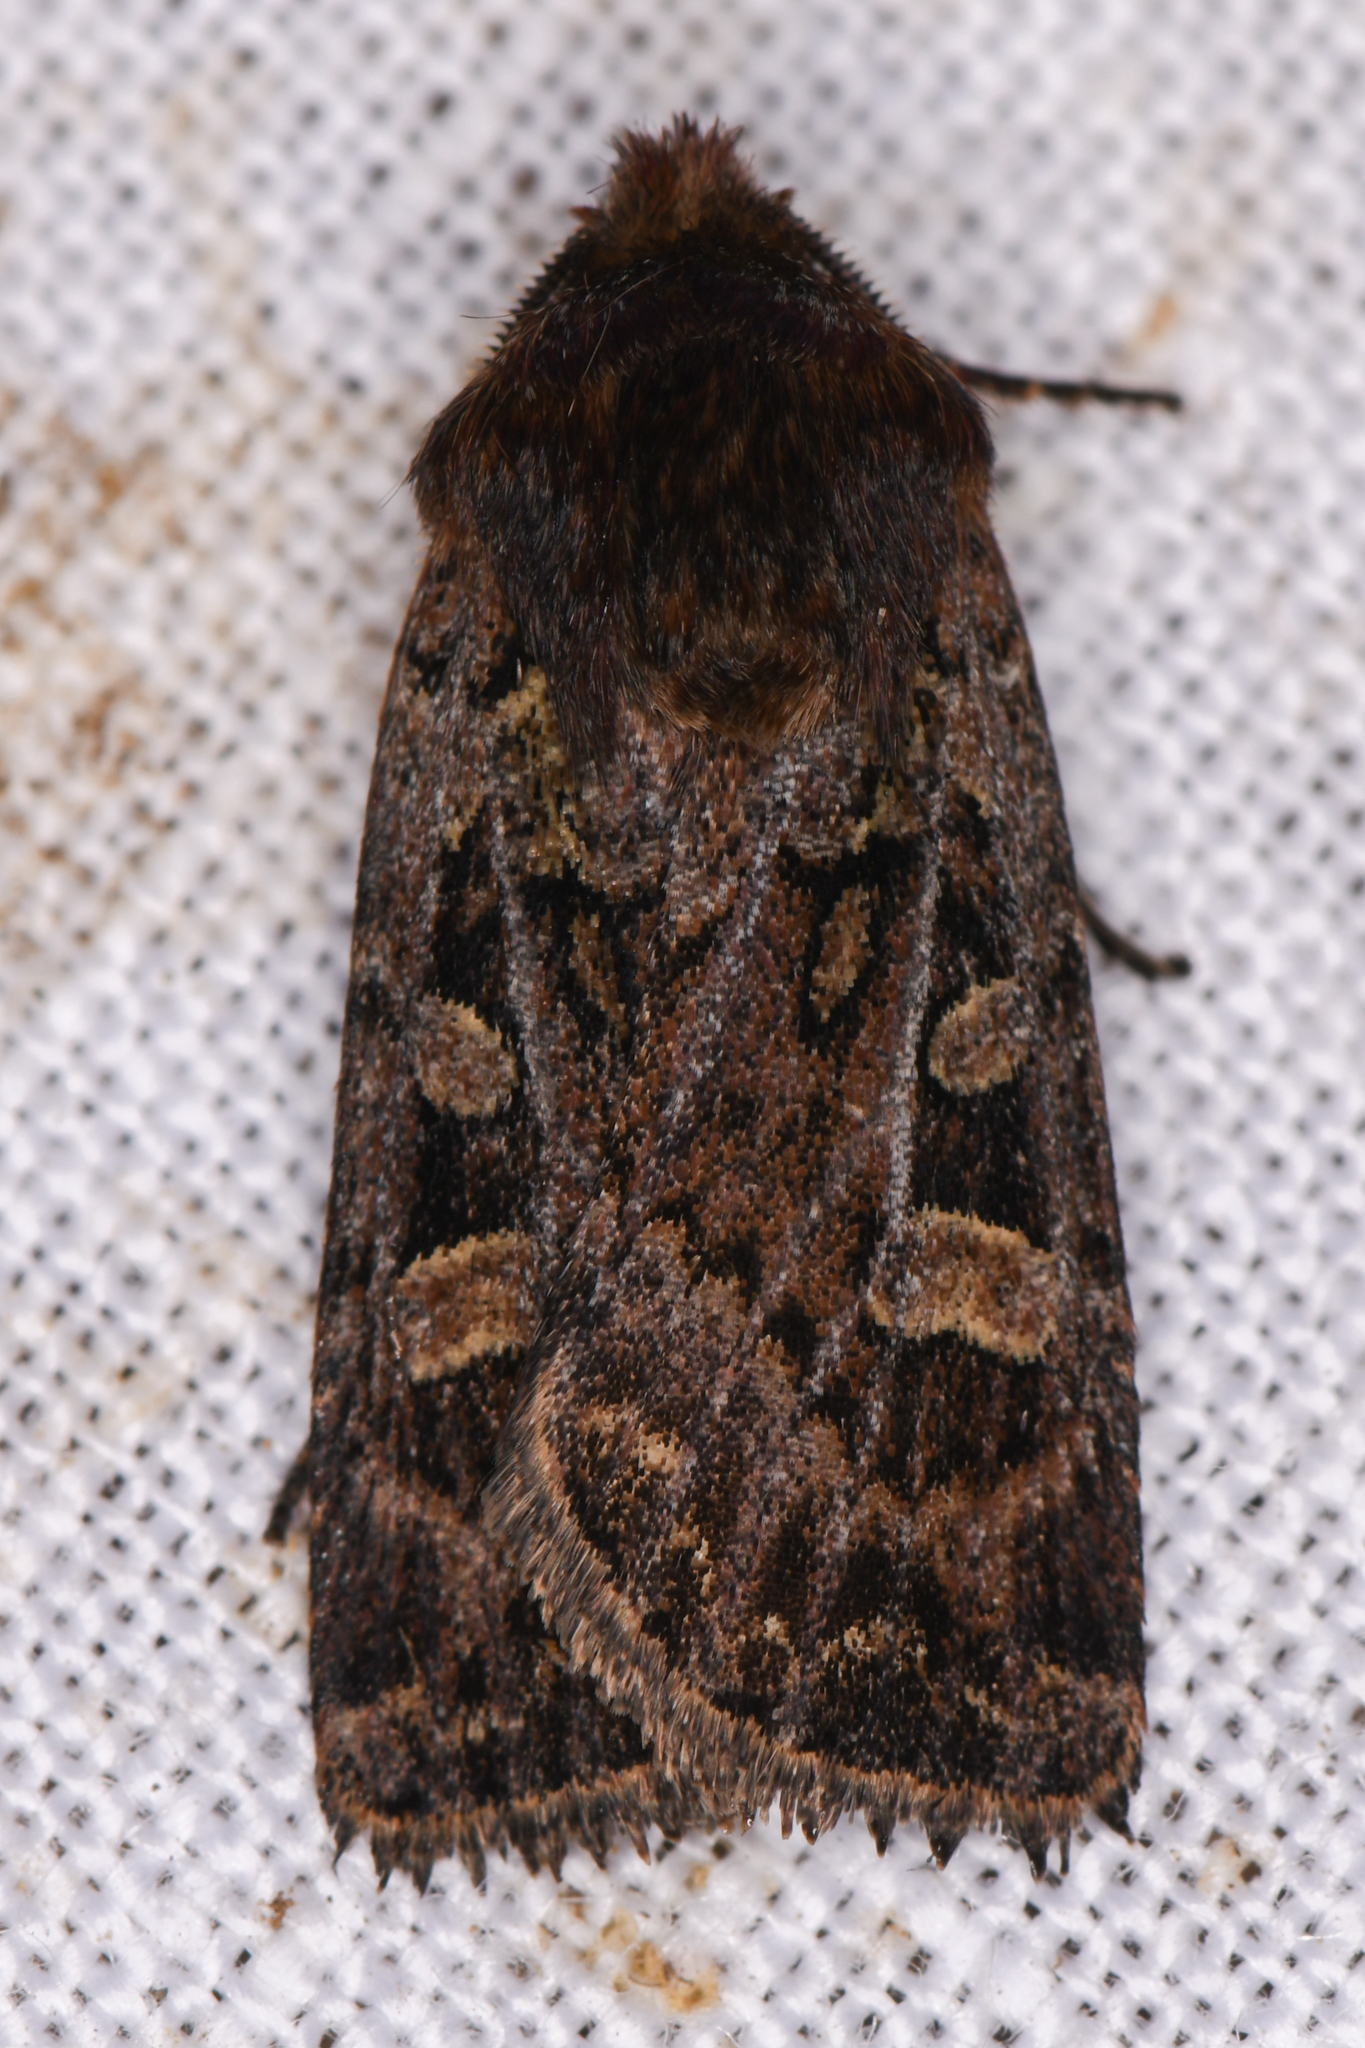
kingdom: Animalia
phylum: Arthropoda
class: Insecta
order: Lepidoptera
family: Noctuidae
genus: Euxoa
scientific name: Euxoa lewisi
